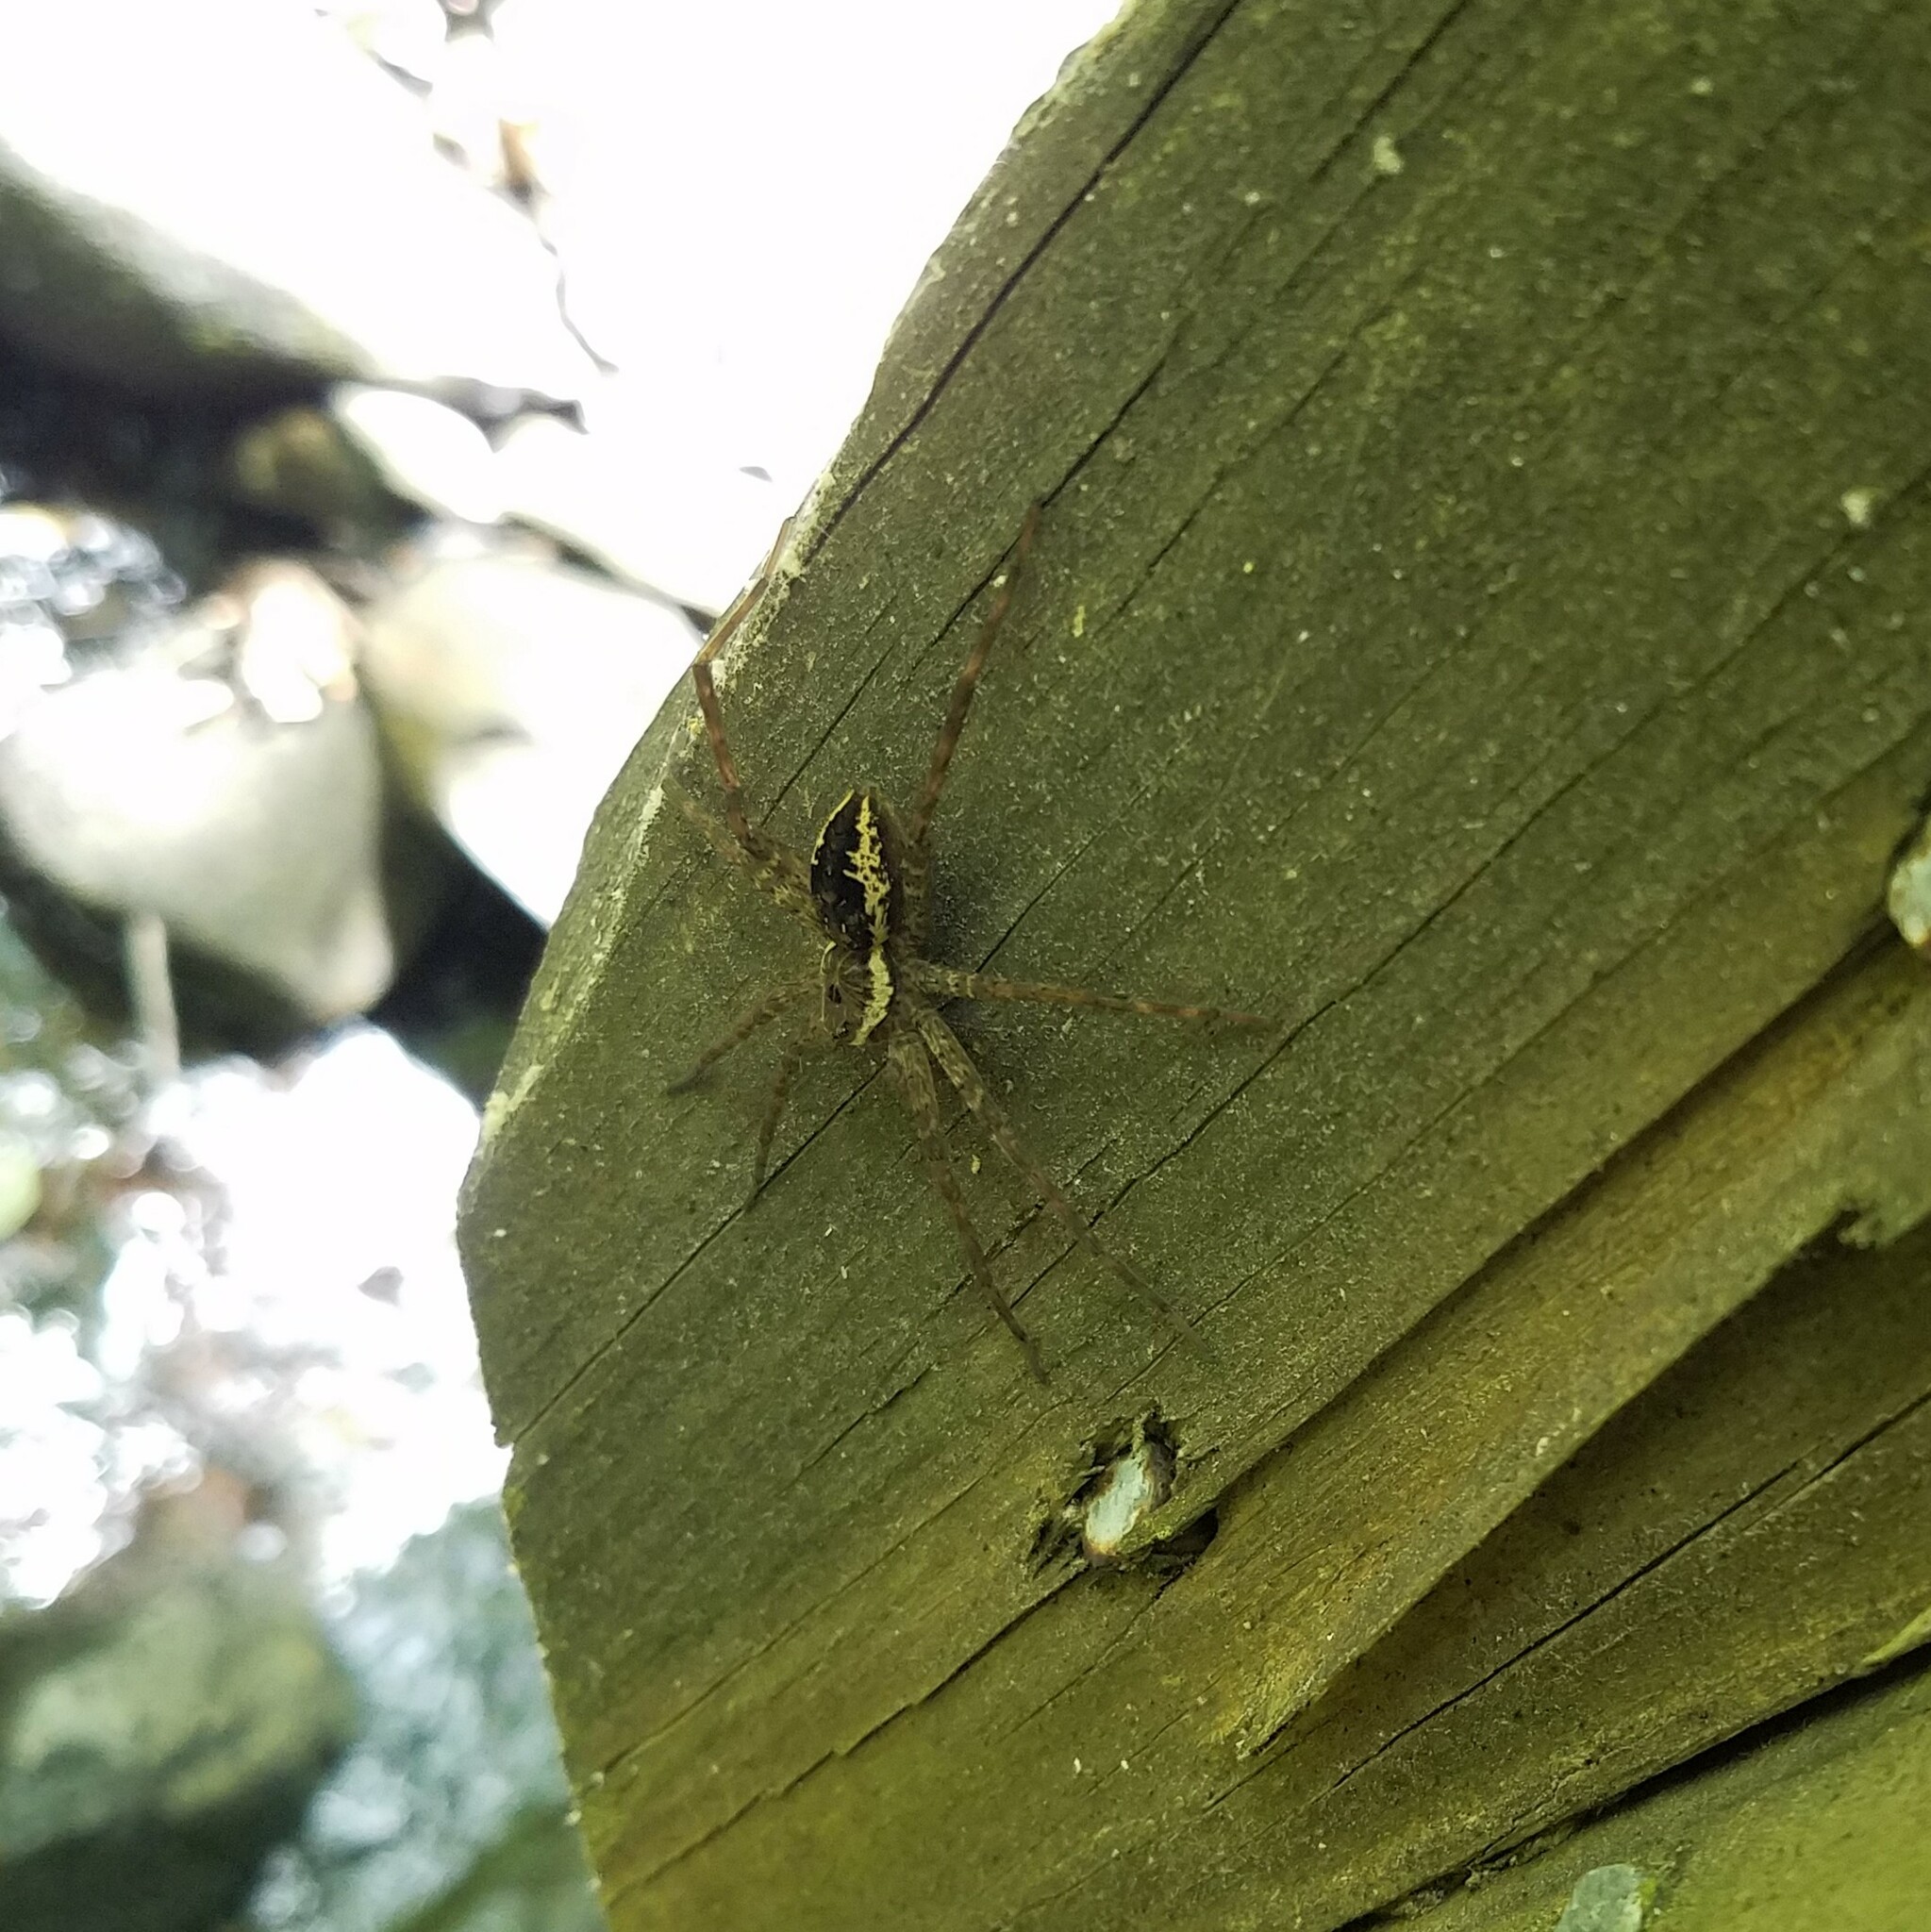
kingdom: Animalia
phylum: Arthropoda
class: Arachnida
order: Araneae
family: Pisauridae
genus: Dolomedes
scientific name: Dolomedes vittatus
